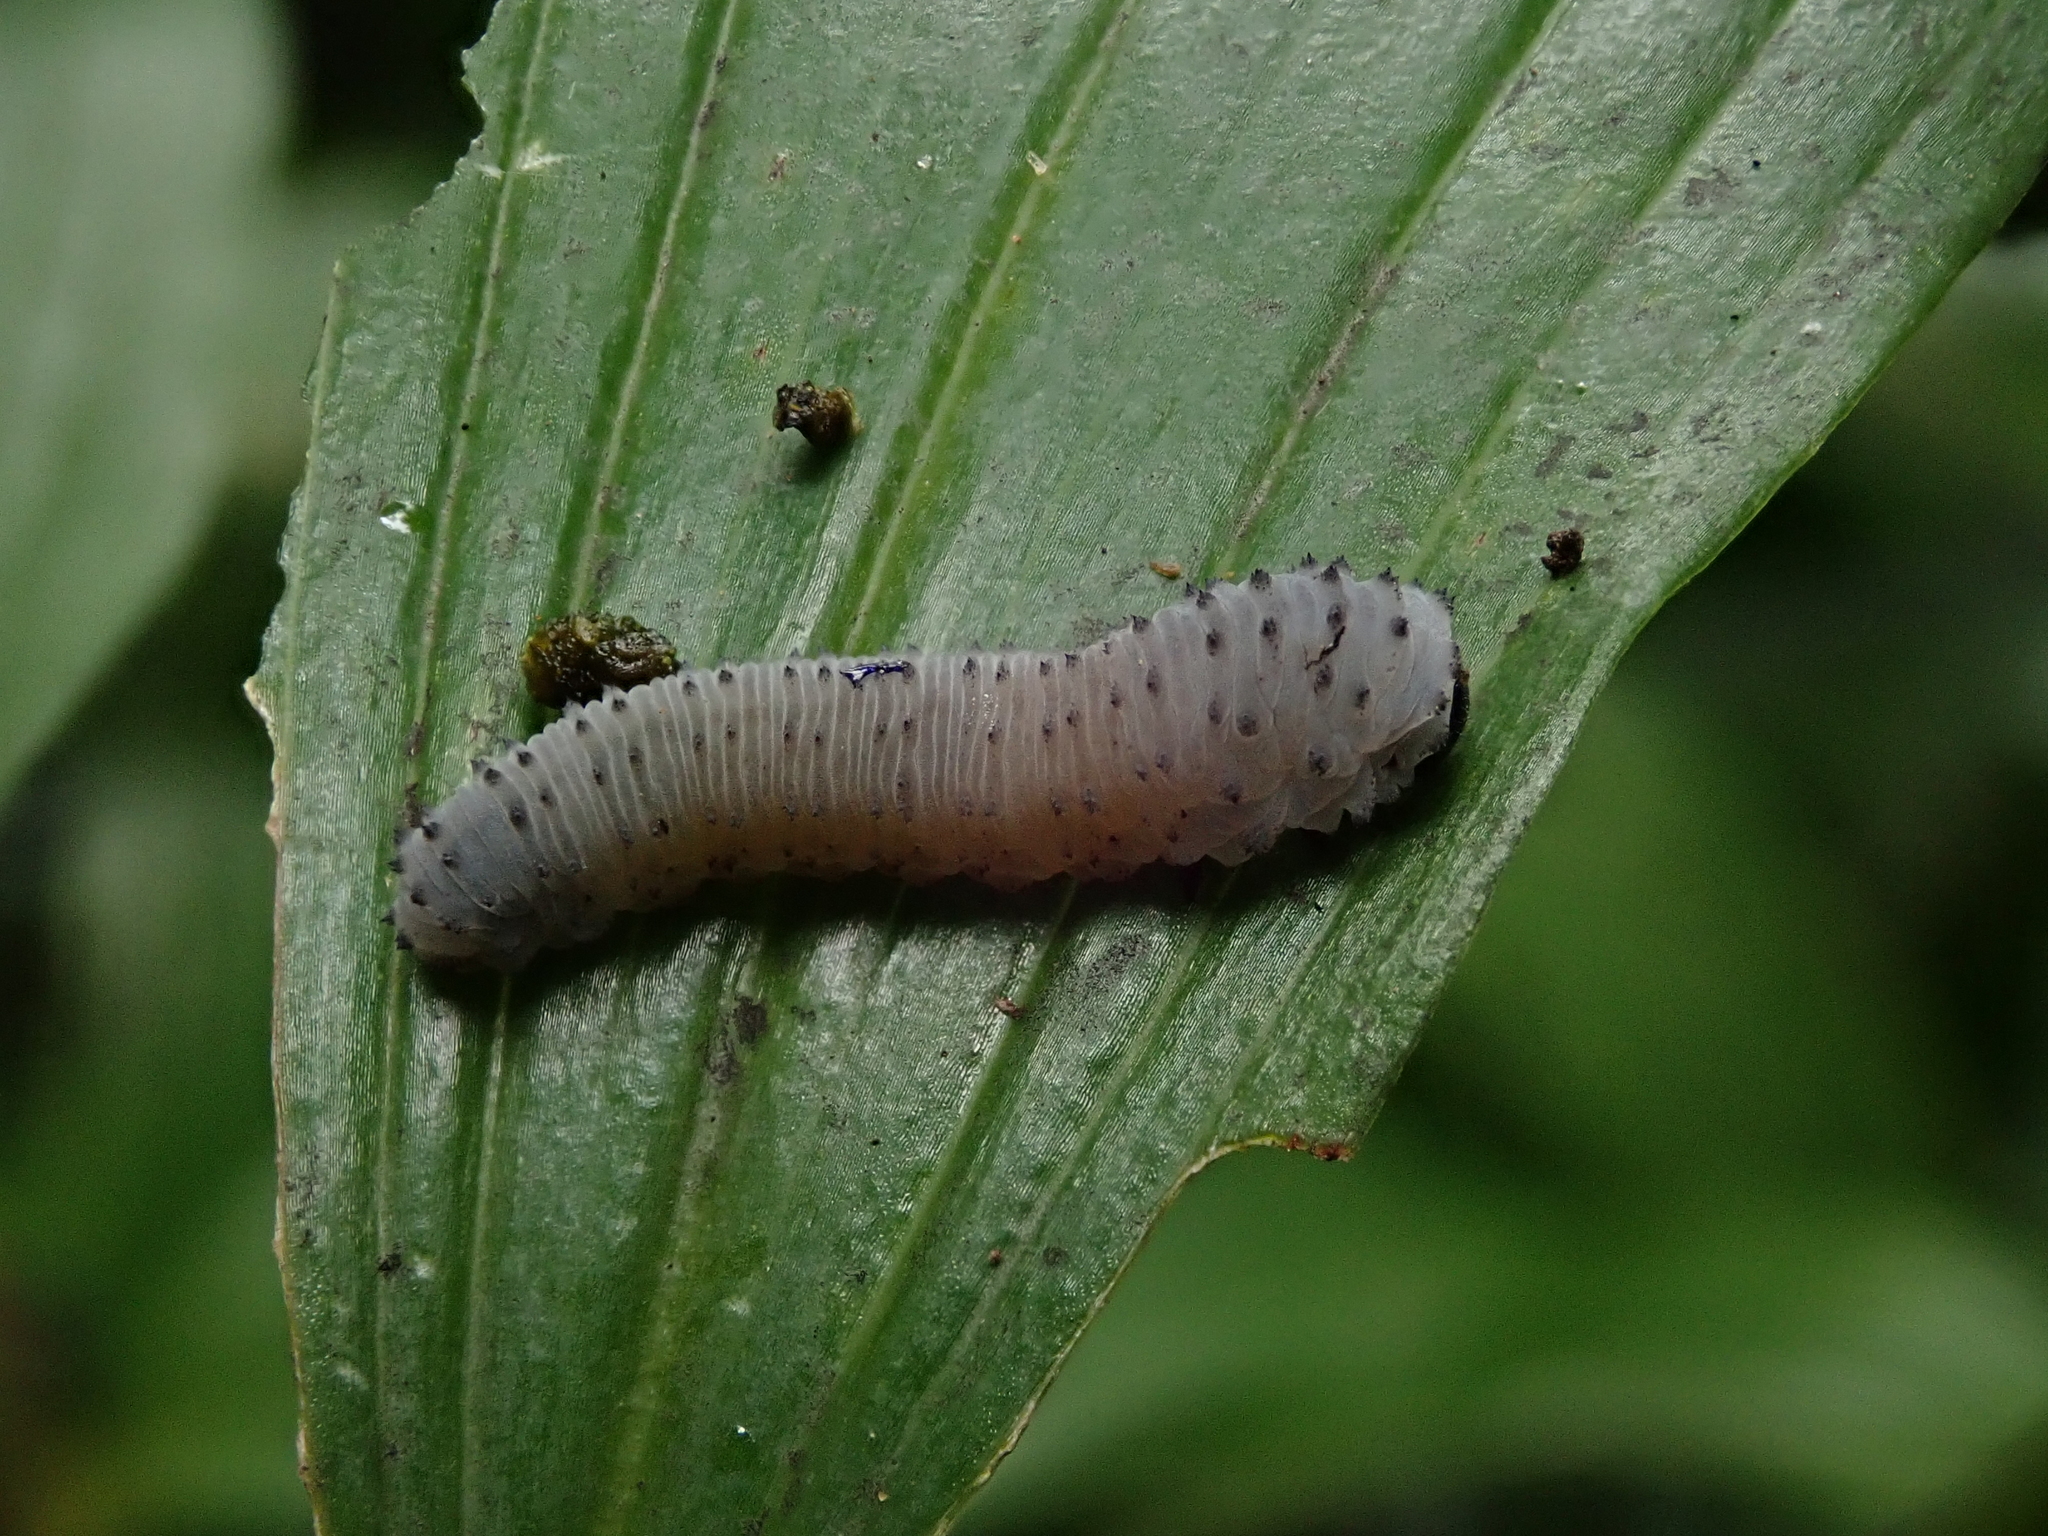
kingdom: Animalia
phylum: Arthropoda
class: Insecta
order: Hymenoptera
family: Tenthredinidae
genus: Phymatocera
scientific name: Phymatocera aterrima
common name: Solomon's-seal sawfly
